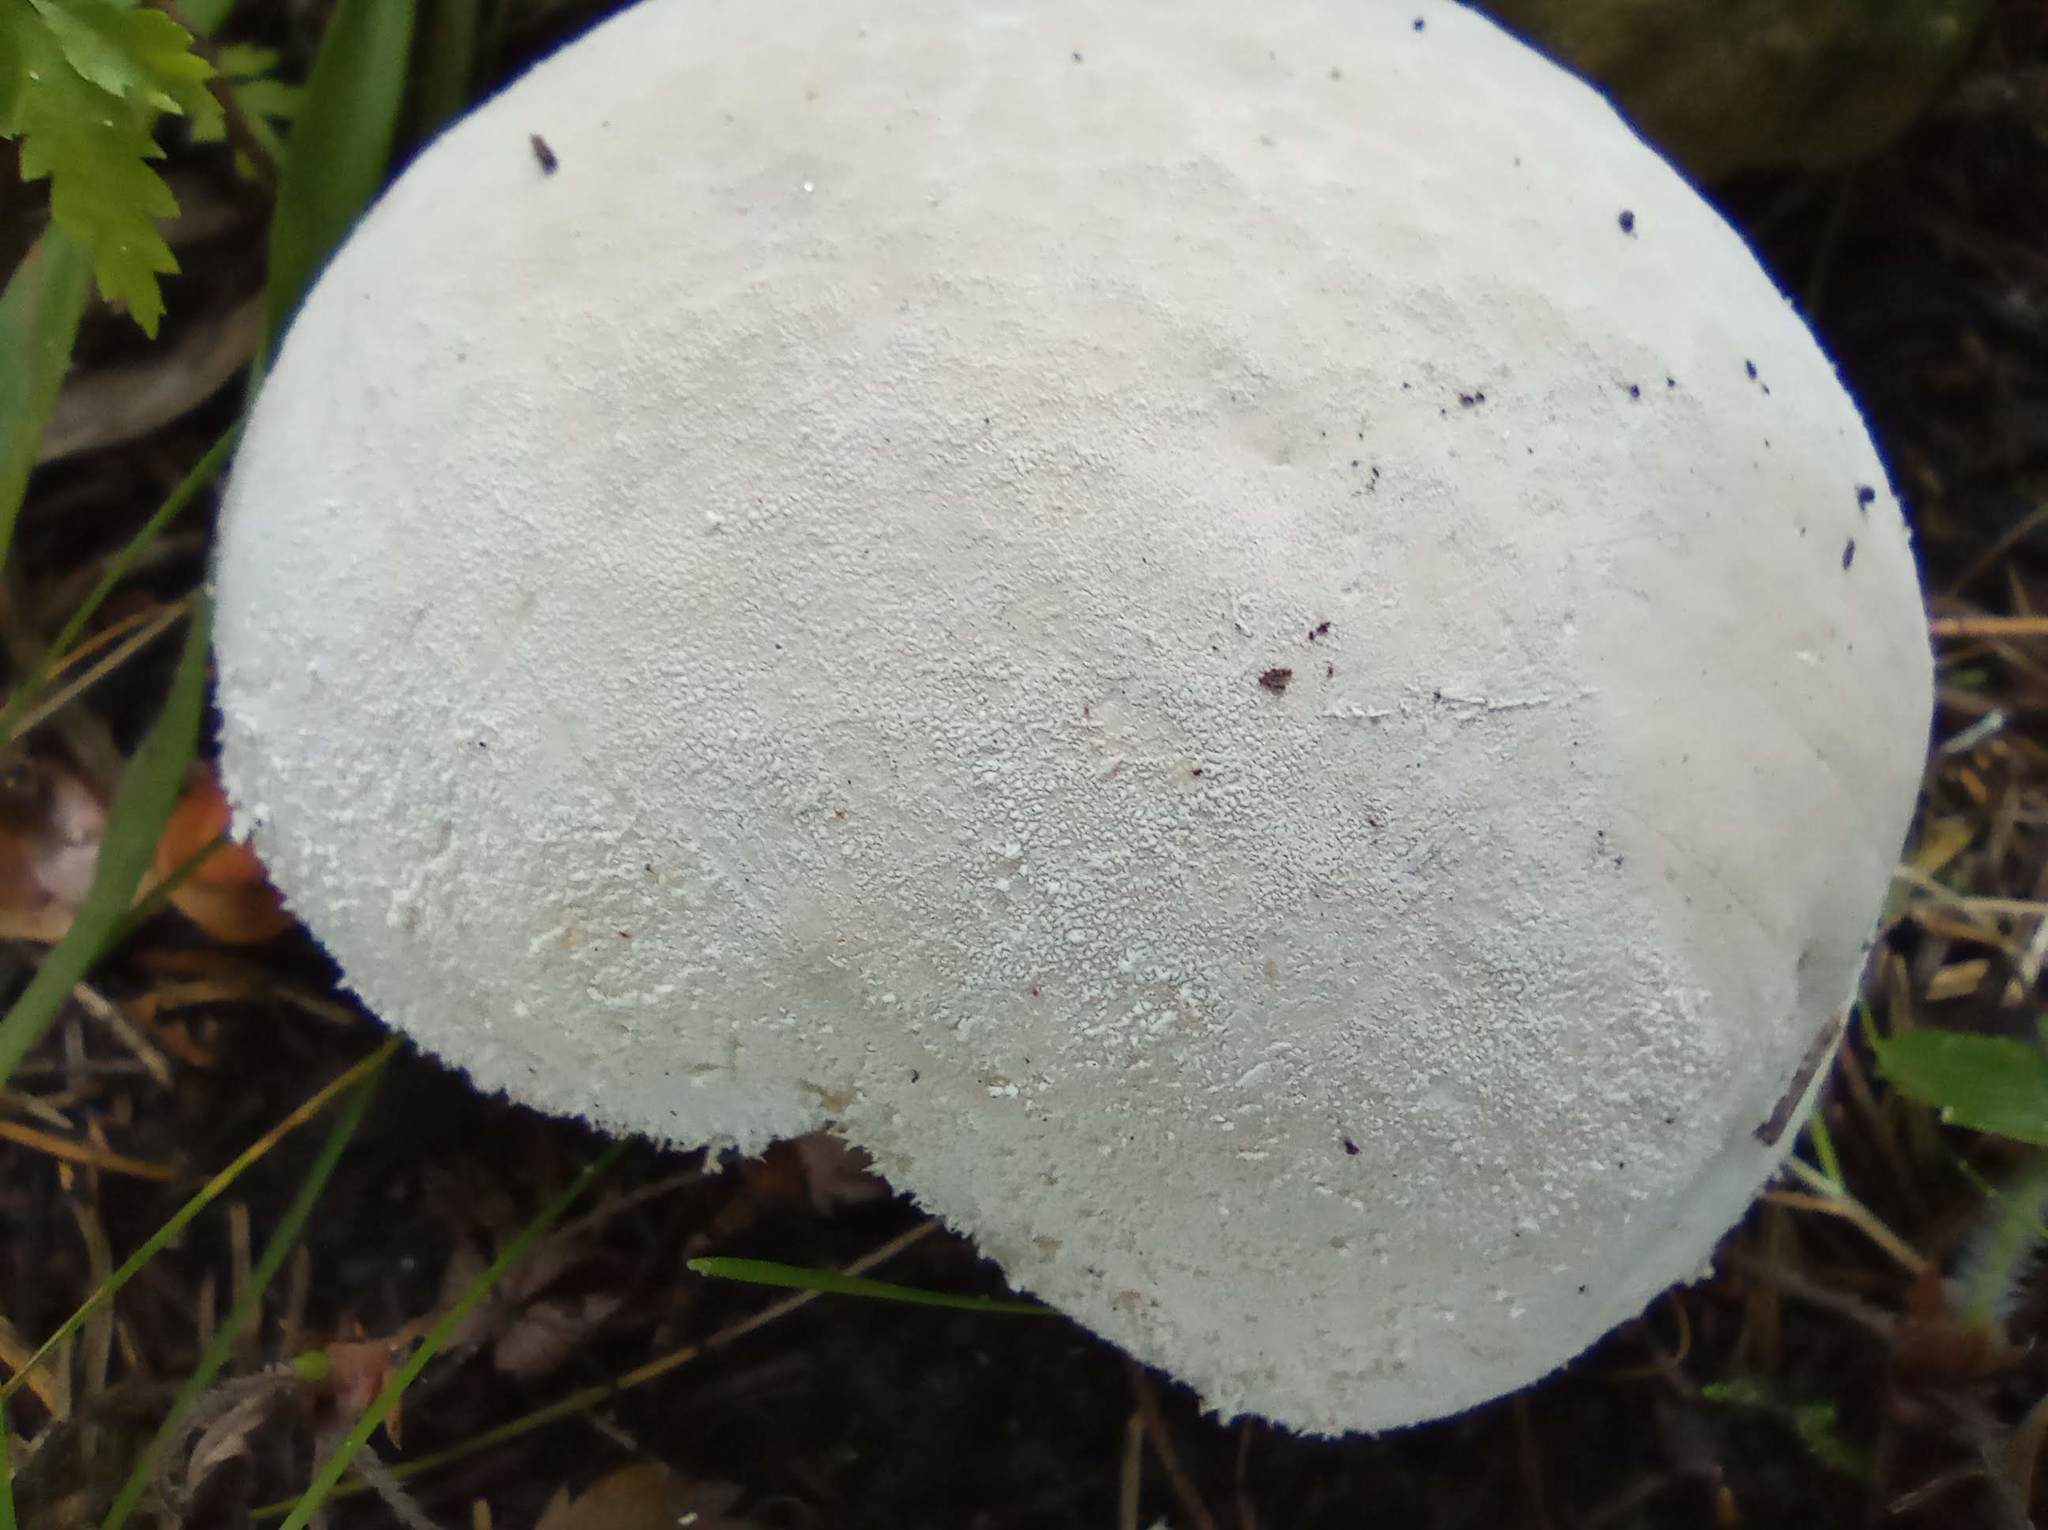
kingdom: Fungi
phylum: Basidiomycota
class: Agaricomycetes
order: Agaricales
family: Lycoperdaceae
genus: Lycoperdon
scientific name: Lycoperdon excipuliforme
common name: Pestle puffball
